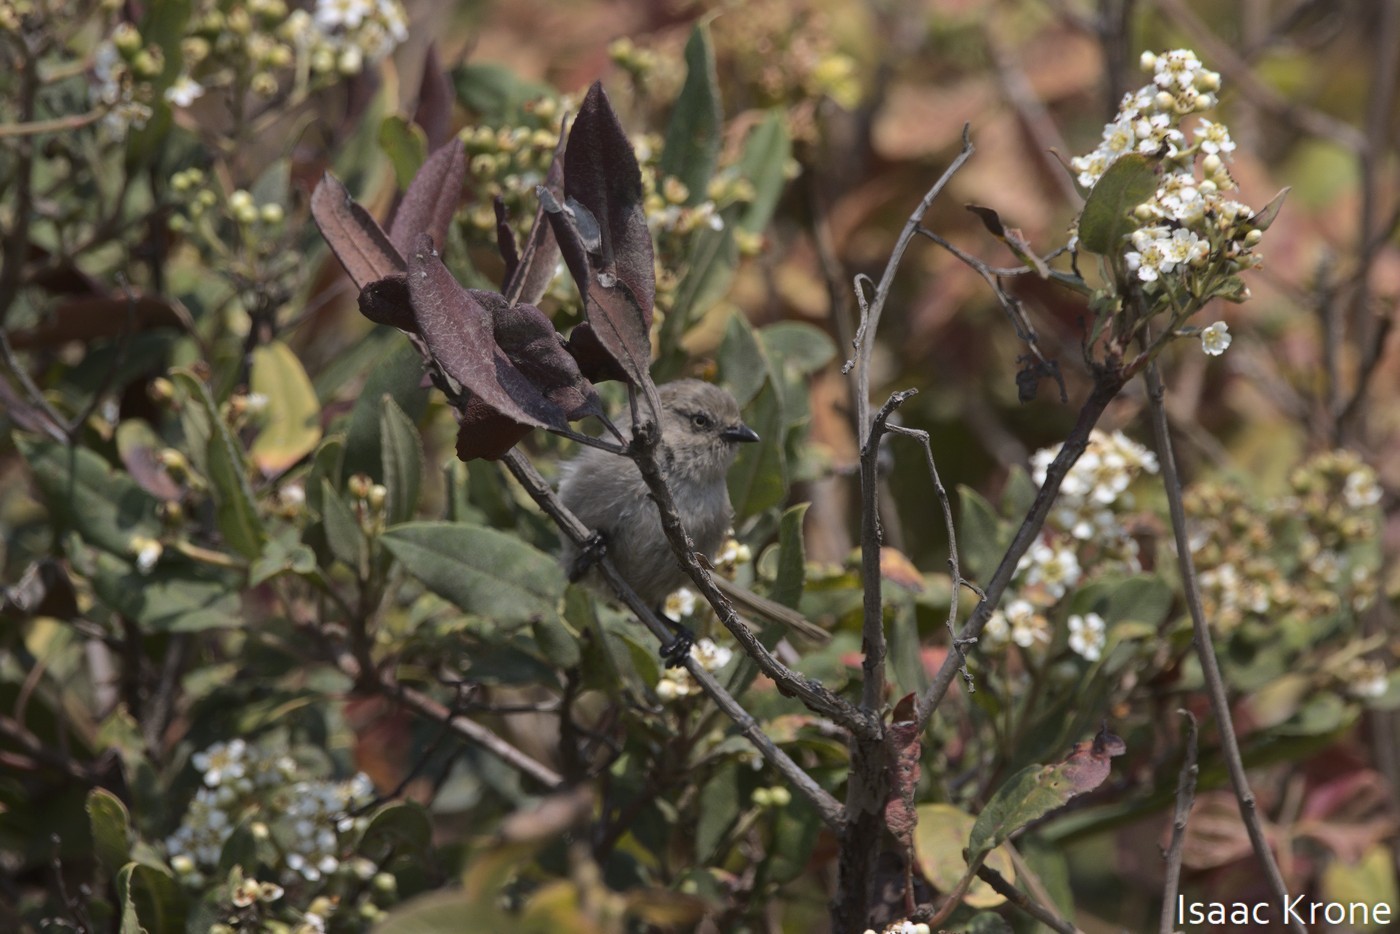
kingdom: Animalia
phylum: Chordata
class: Aves
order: Passeriformes
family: Aegithalidae
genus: Psaltriparus
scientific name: Psaltriparus minimus
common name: American bushtit
